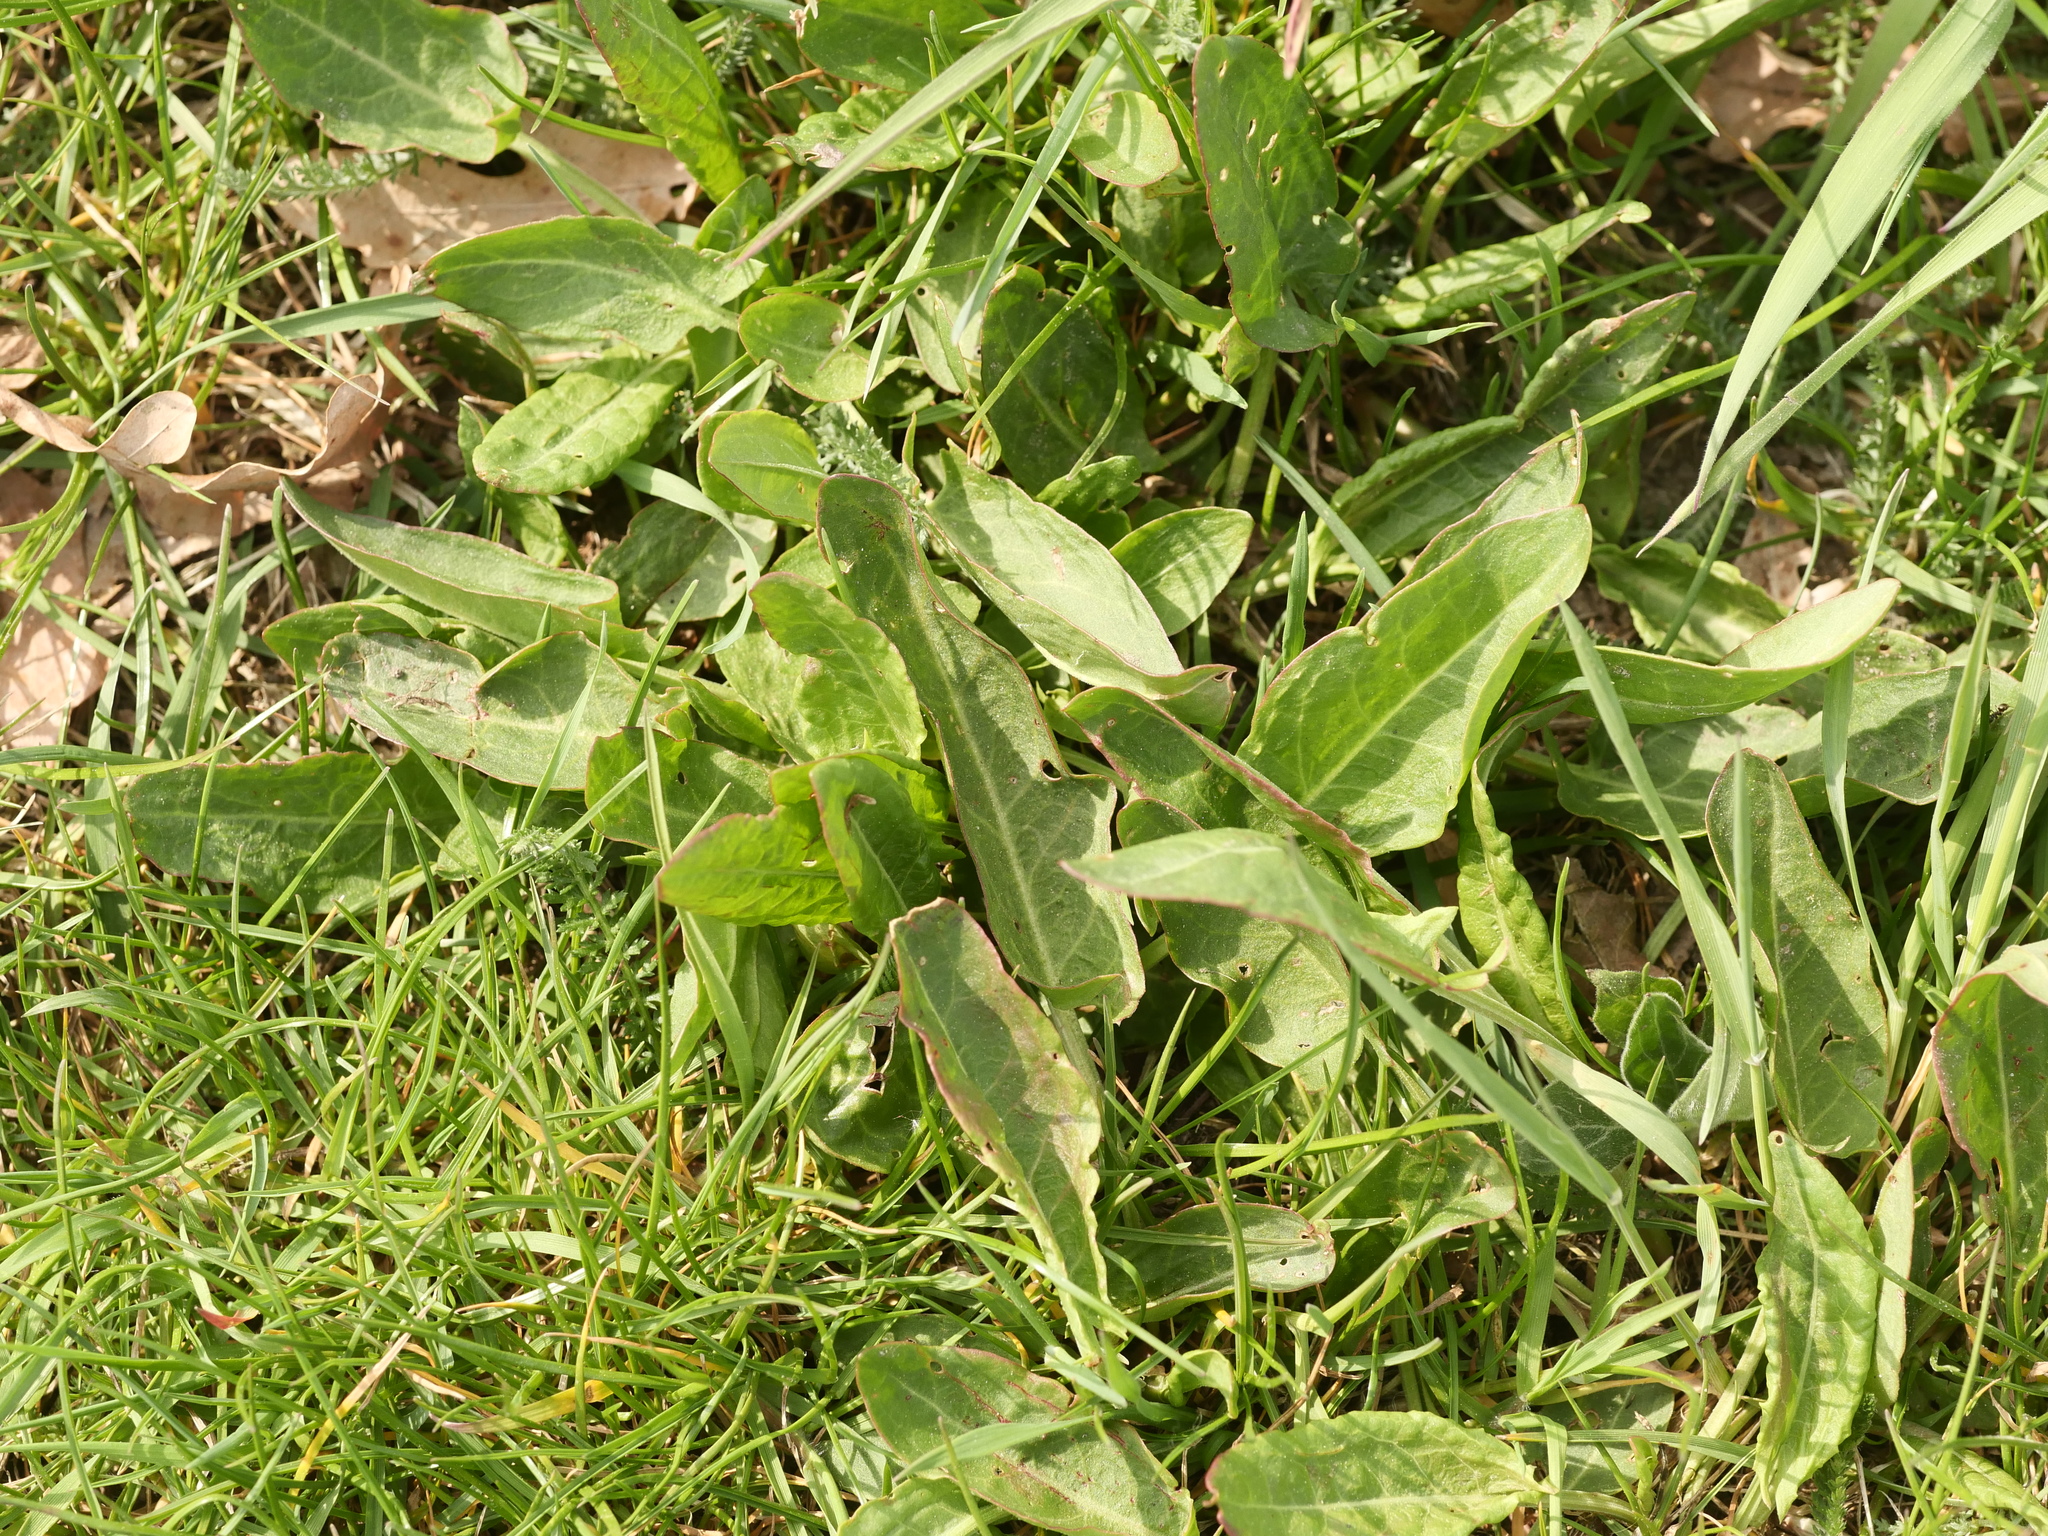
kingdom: Plantae
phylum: Tracheophyta
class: Magnoliopsida
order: Caryophyllales
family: Polygonaceae
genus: Rumex
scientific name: Rumex acetosa
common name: Garden sorrel
